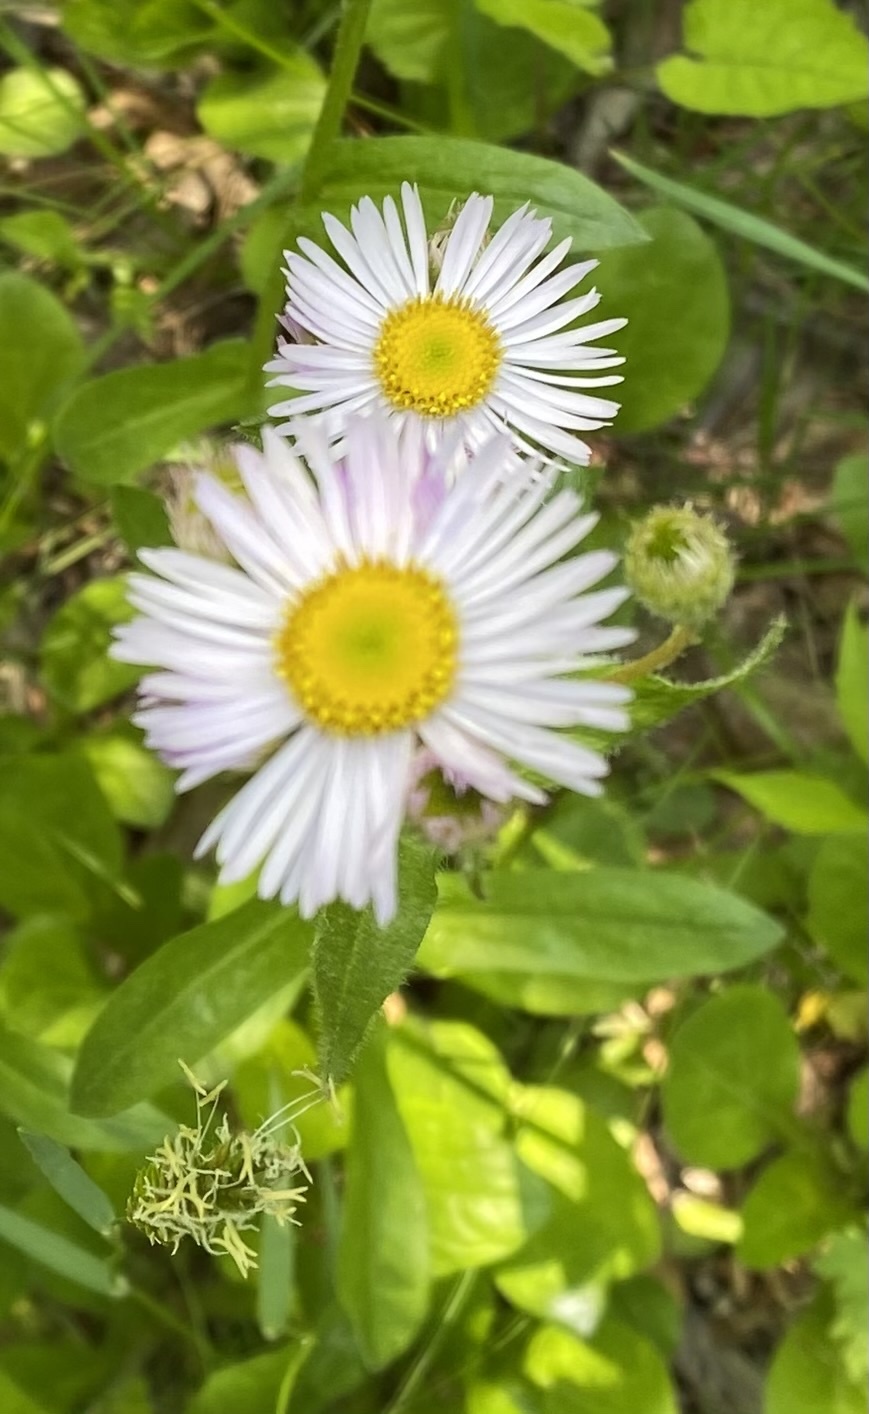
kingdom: Plantae
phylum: Tracheophyta
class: Magnoliopsida
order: Asterales
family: Asteraceae
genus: Erigeron
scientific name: Erigeron pulchellus
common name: Hairy fleabane
